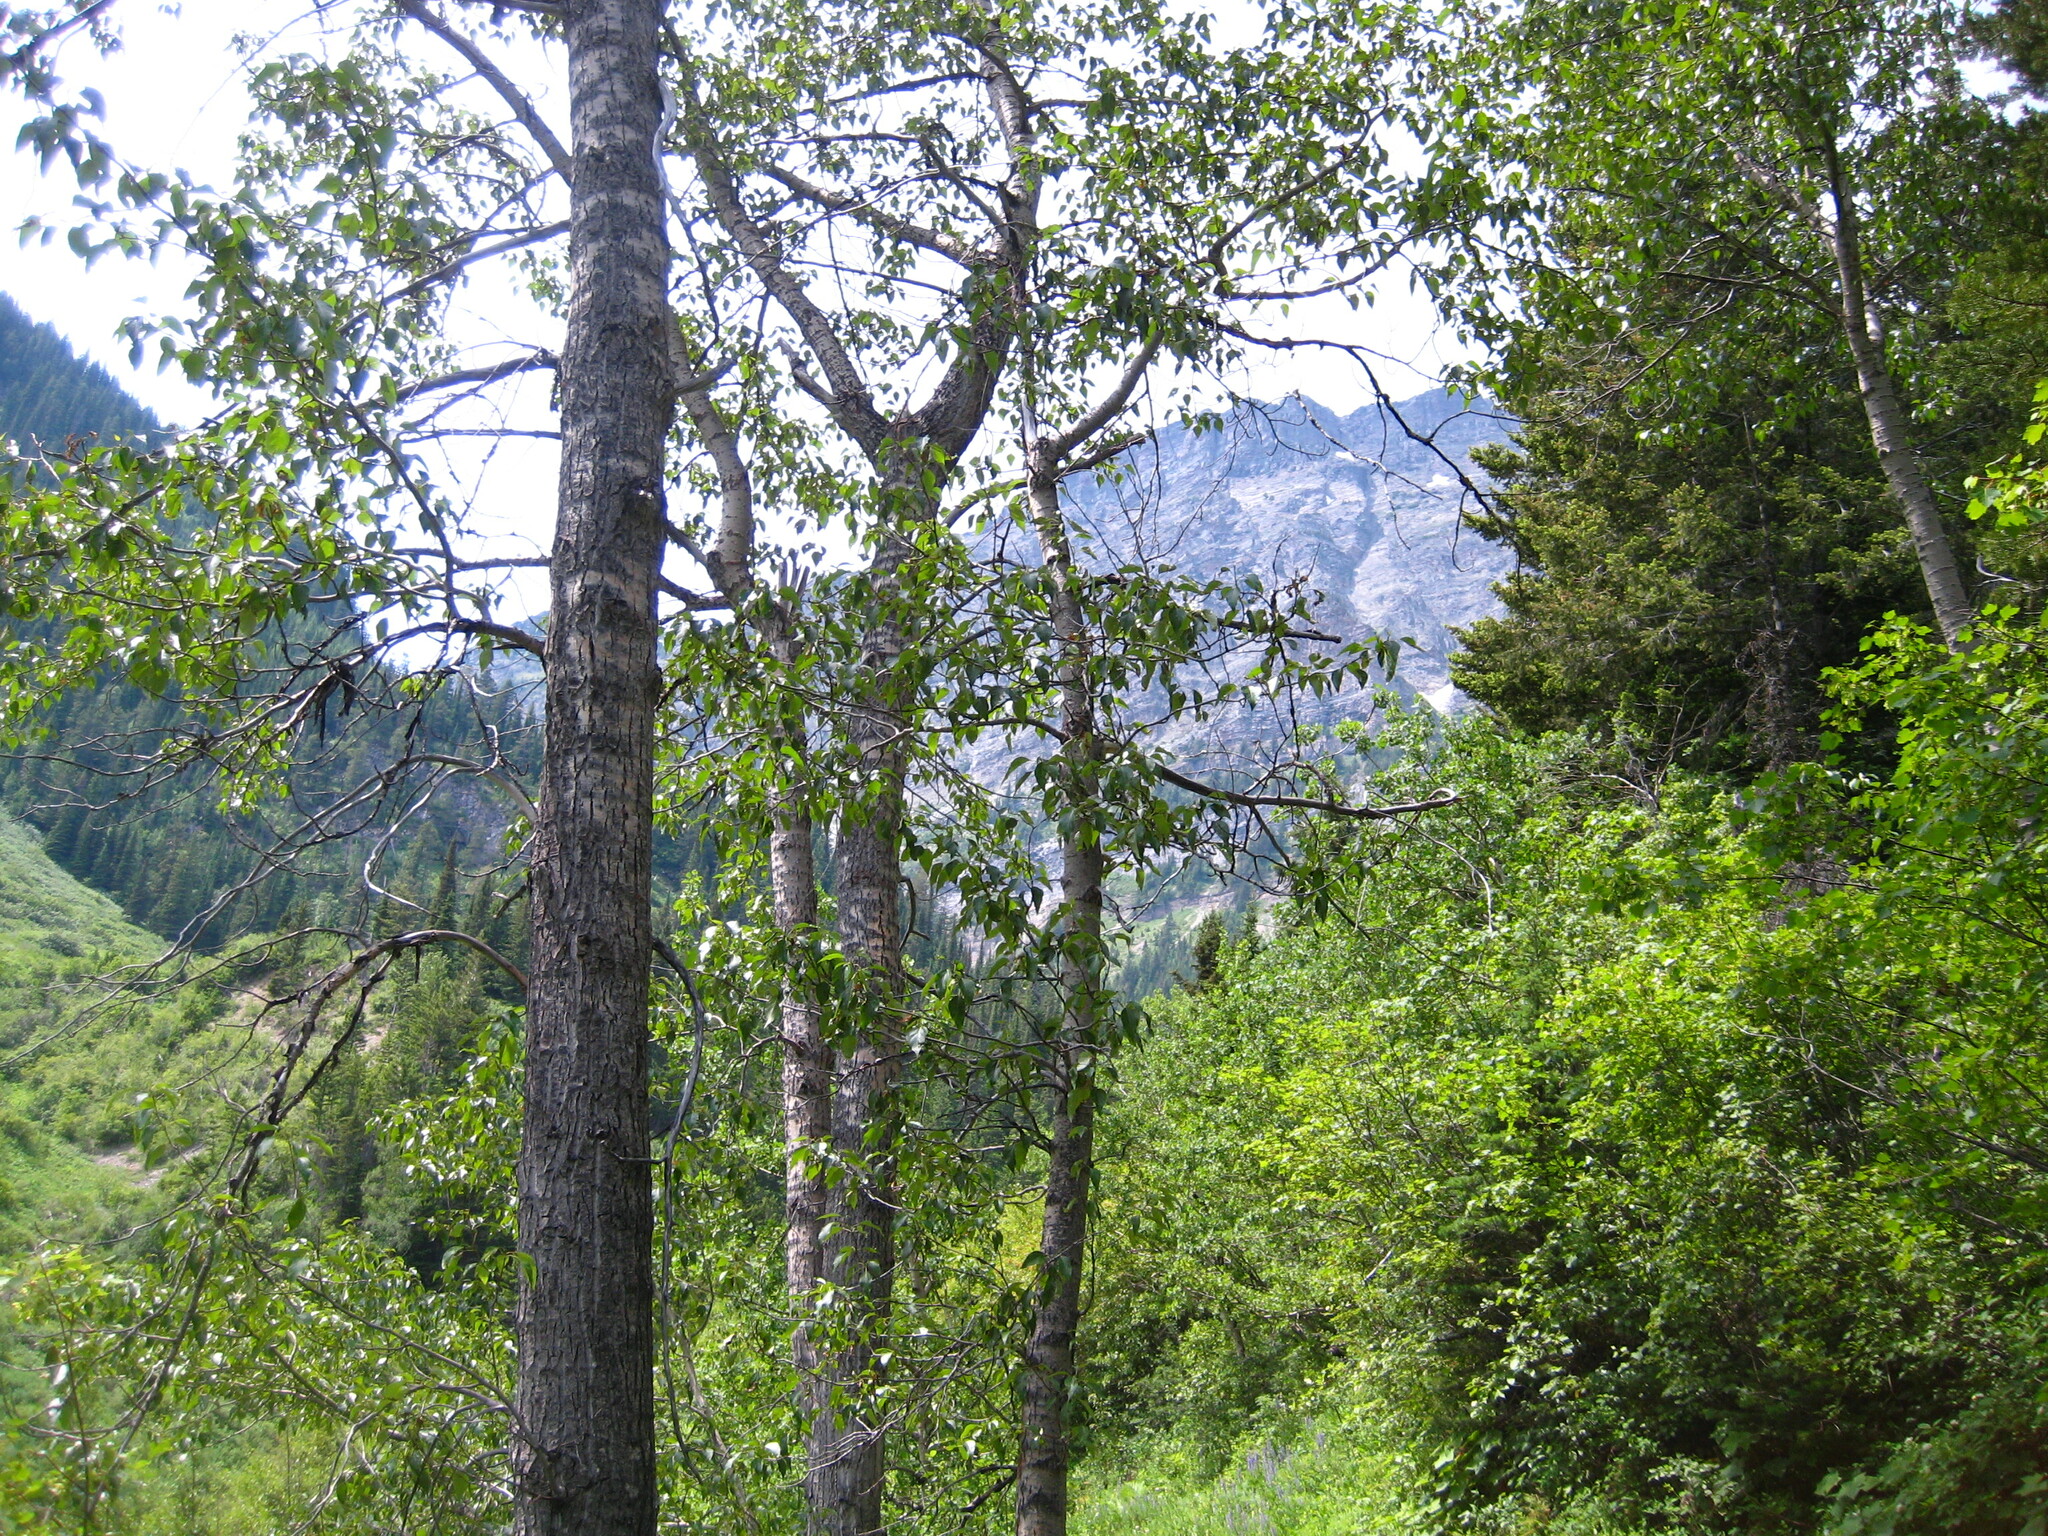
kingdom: Plantae
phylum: Tracheophyta
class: Magnoliopsida
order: Malpighiales
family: Salicaceae
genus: Populus
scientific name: Populus trichocarpa
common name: Black cottonwood
